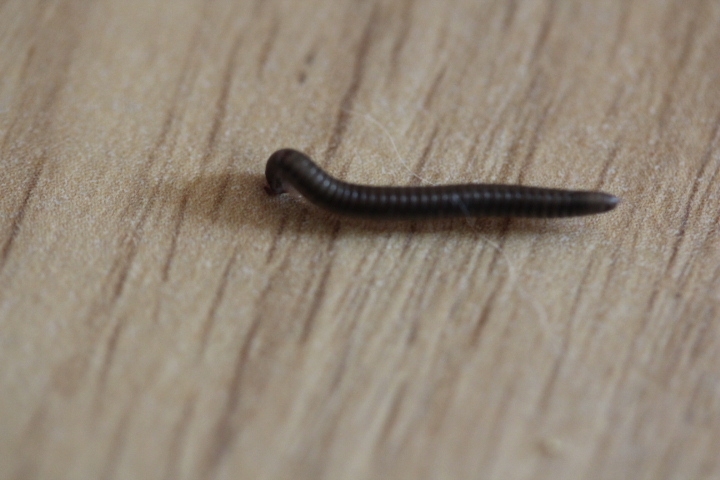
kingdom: Animalia
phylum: Arthropoda
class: Diplopoda
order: Julida
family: Julidae
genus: Ommatoiulus
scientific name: Ommatoiulus moreleti
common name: Portuguese millipede
